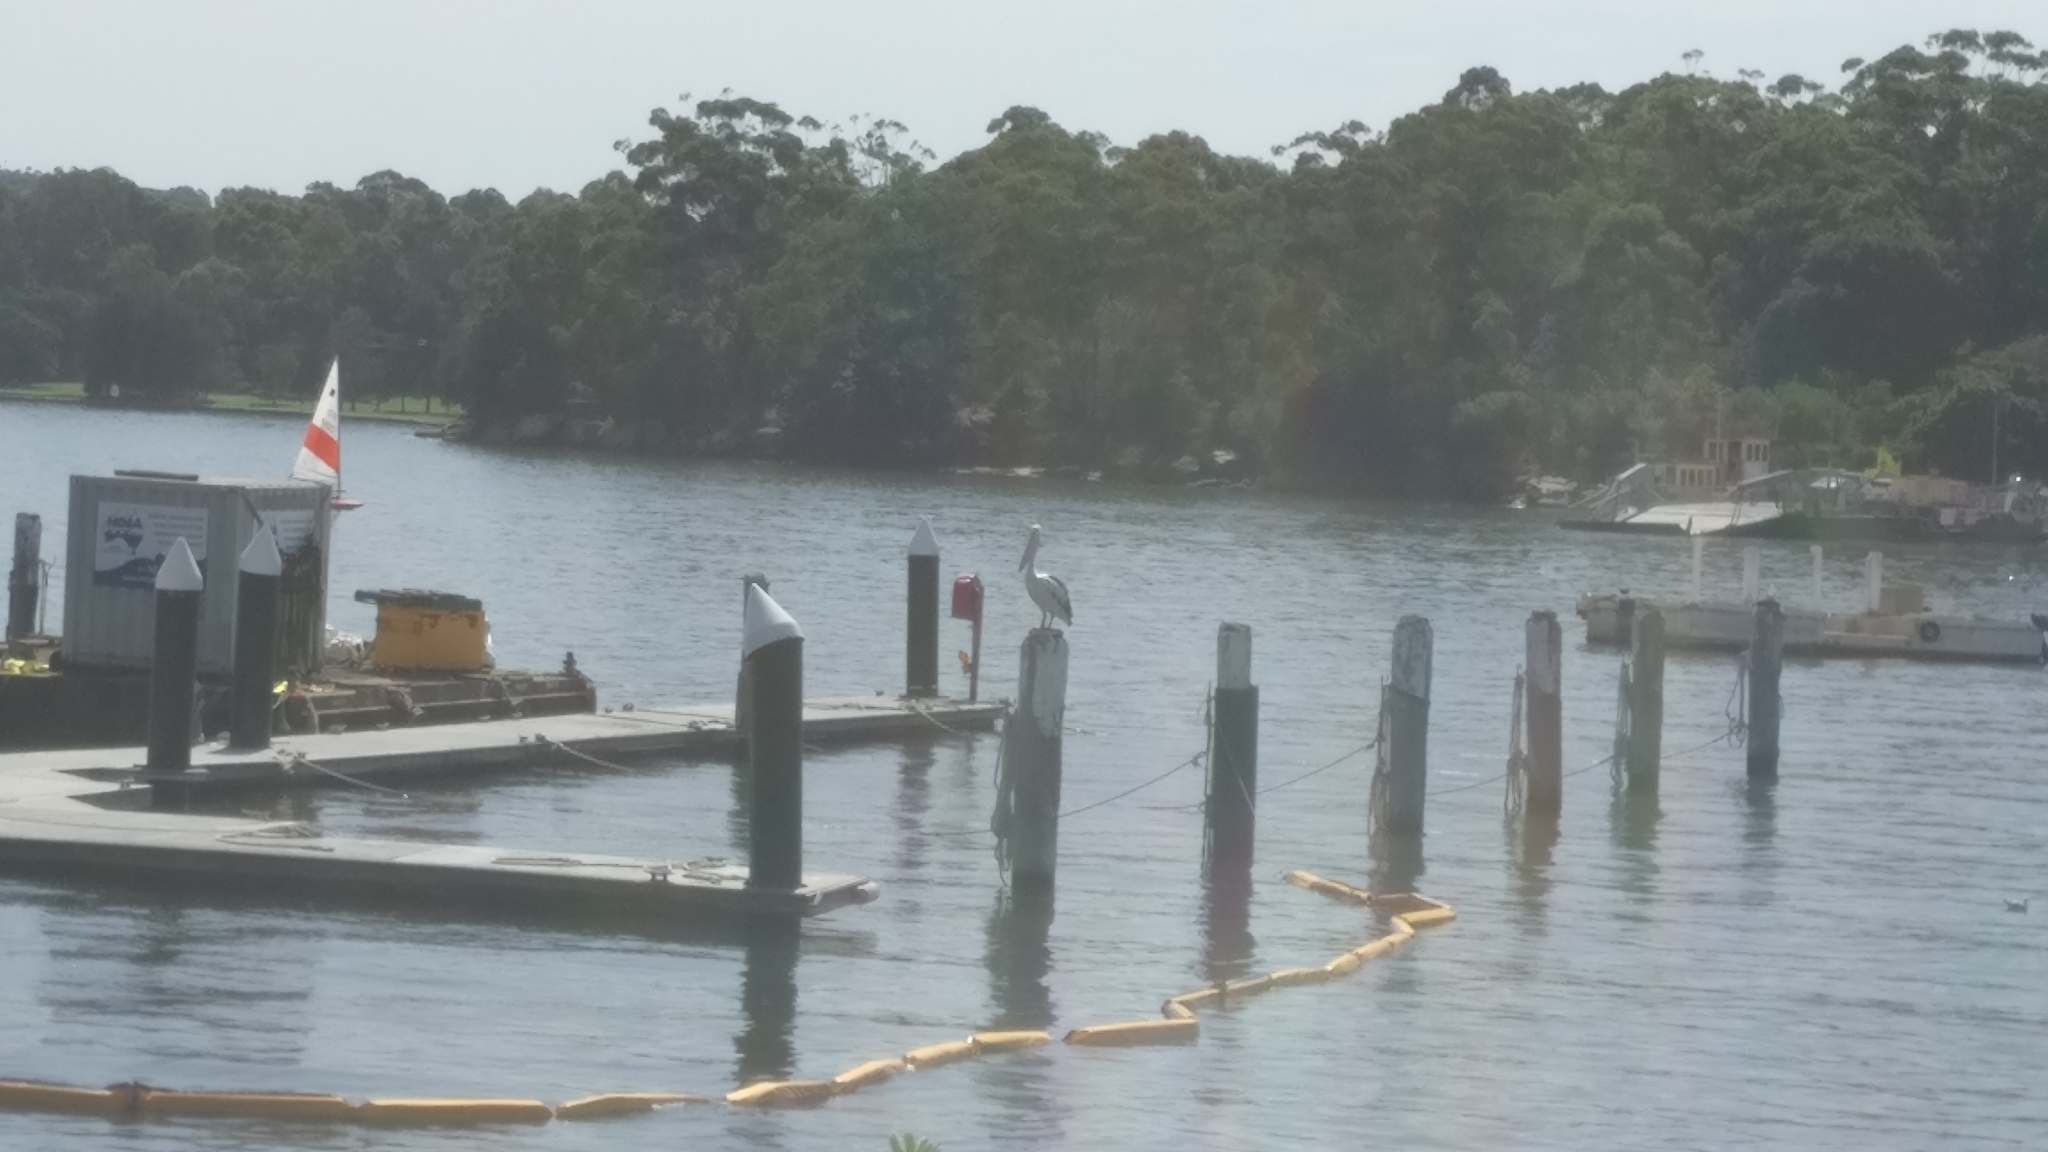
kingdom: Animalia
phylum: Chordata
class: Aves
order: Pelecaniformes
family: Pelecanidae
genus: Pelecanus
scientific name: Pelecanus conspicillatus
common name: Australian pelican
